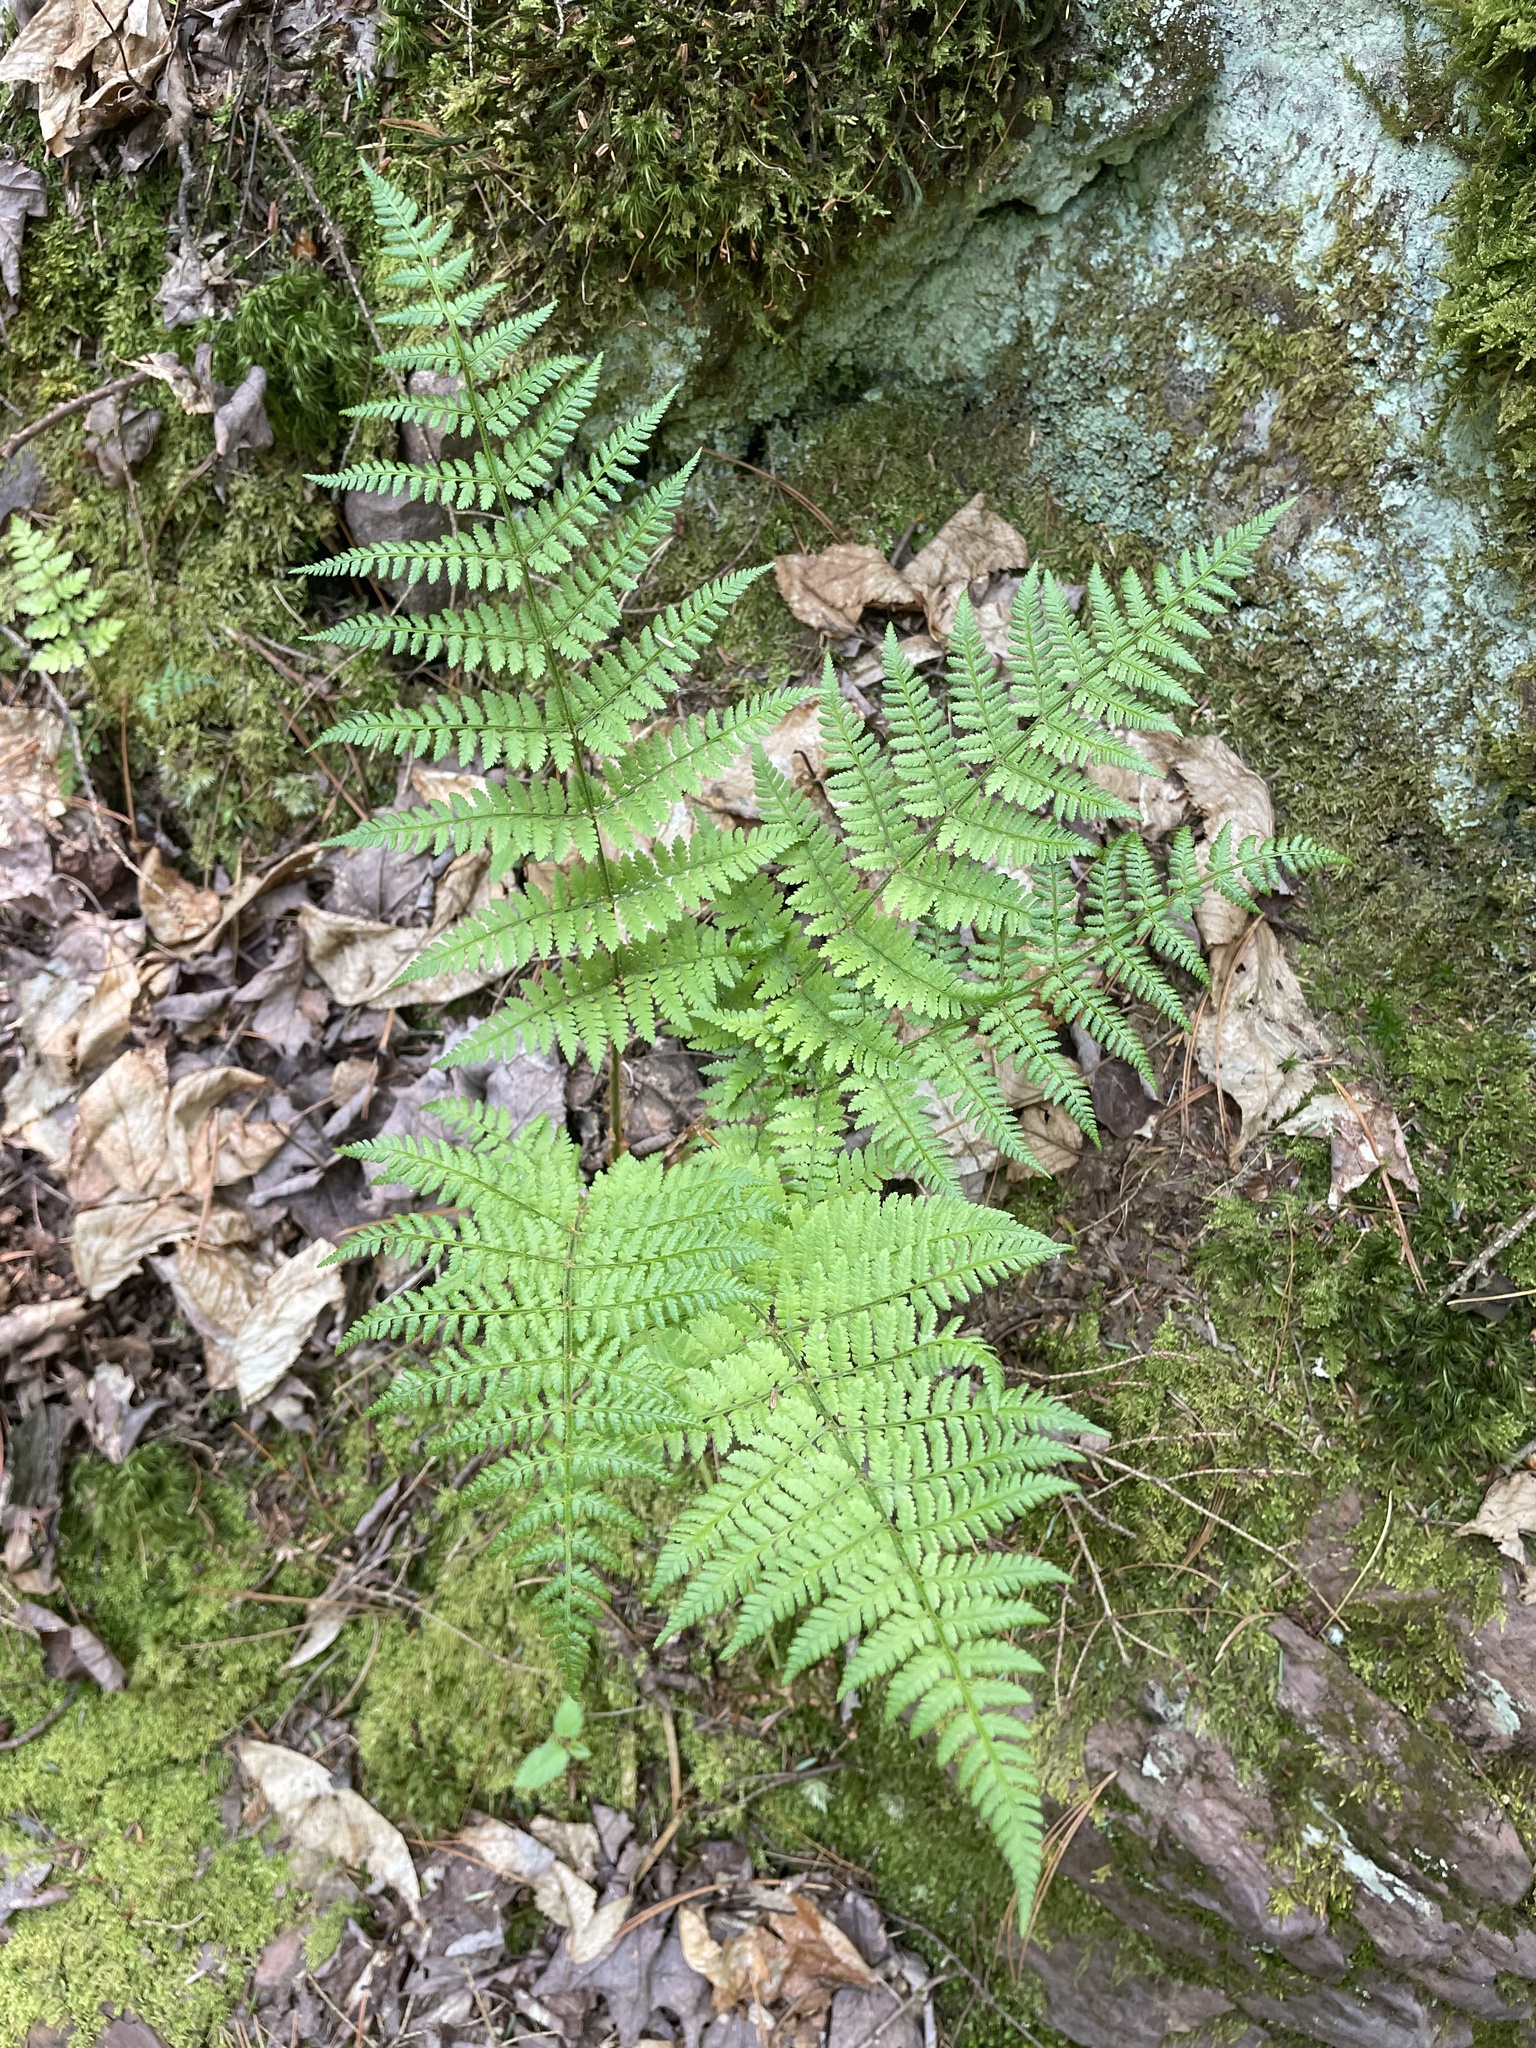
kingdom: Plantae
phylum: Tracheophyta
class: Polypodiopsida
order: Polypodiales
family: Dryopteridaceae
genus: Dryopteris
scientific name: Dryopteris intermedia
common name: Evergreen wood fern
